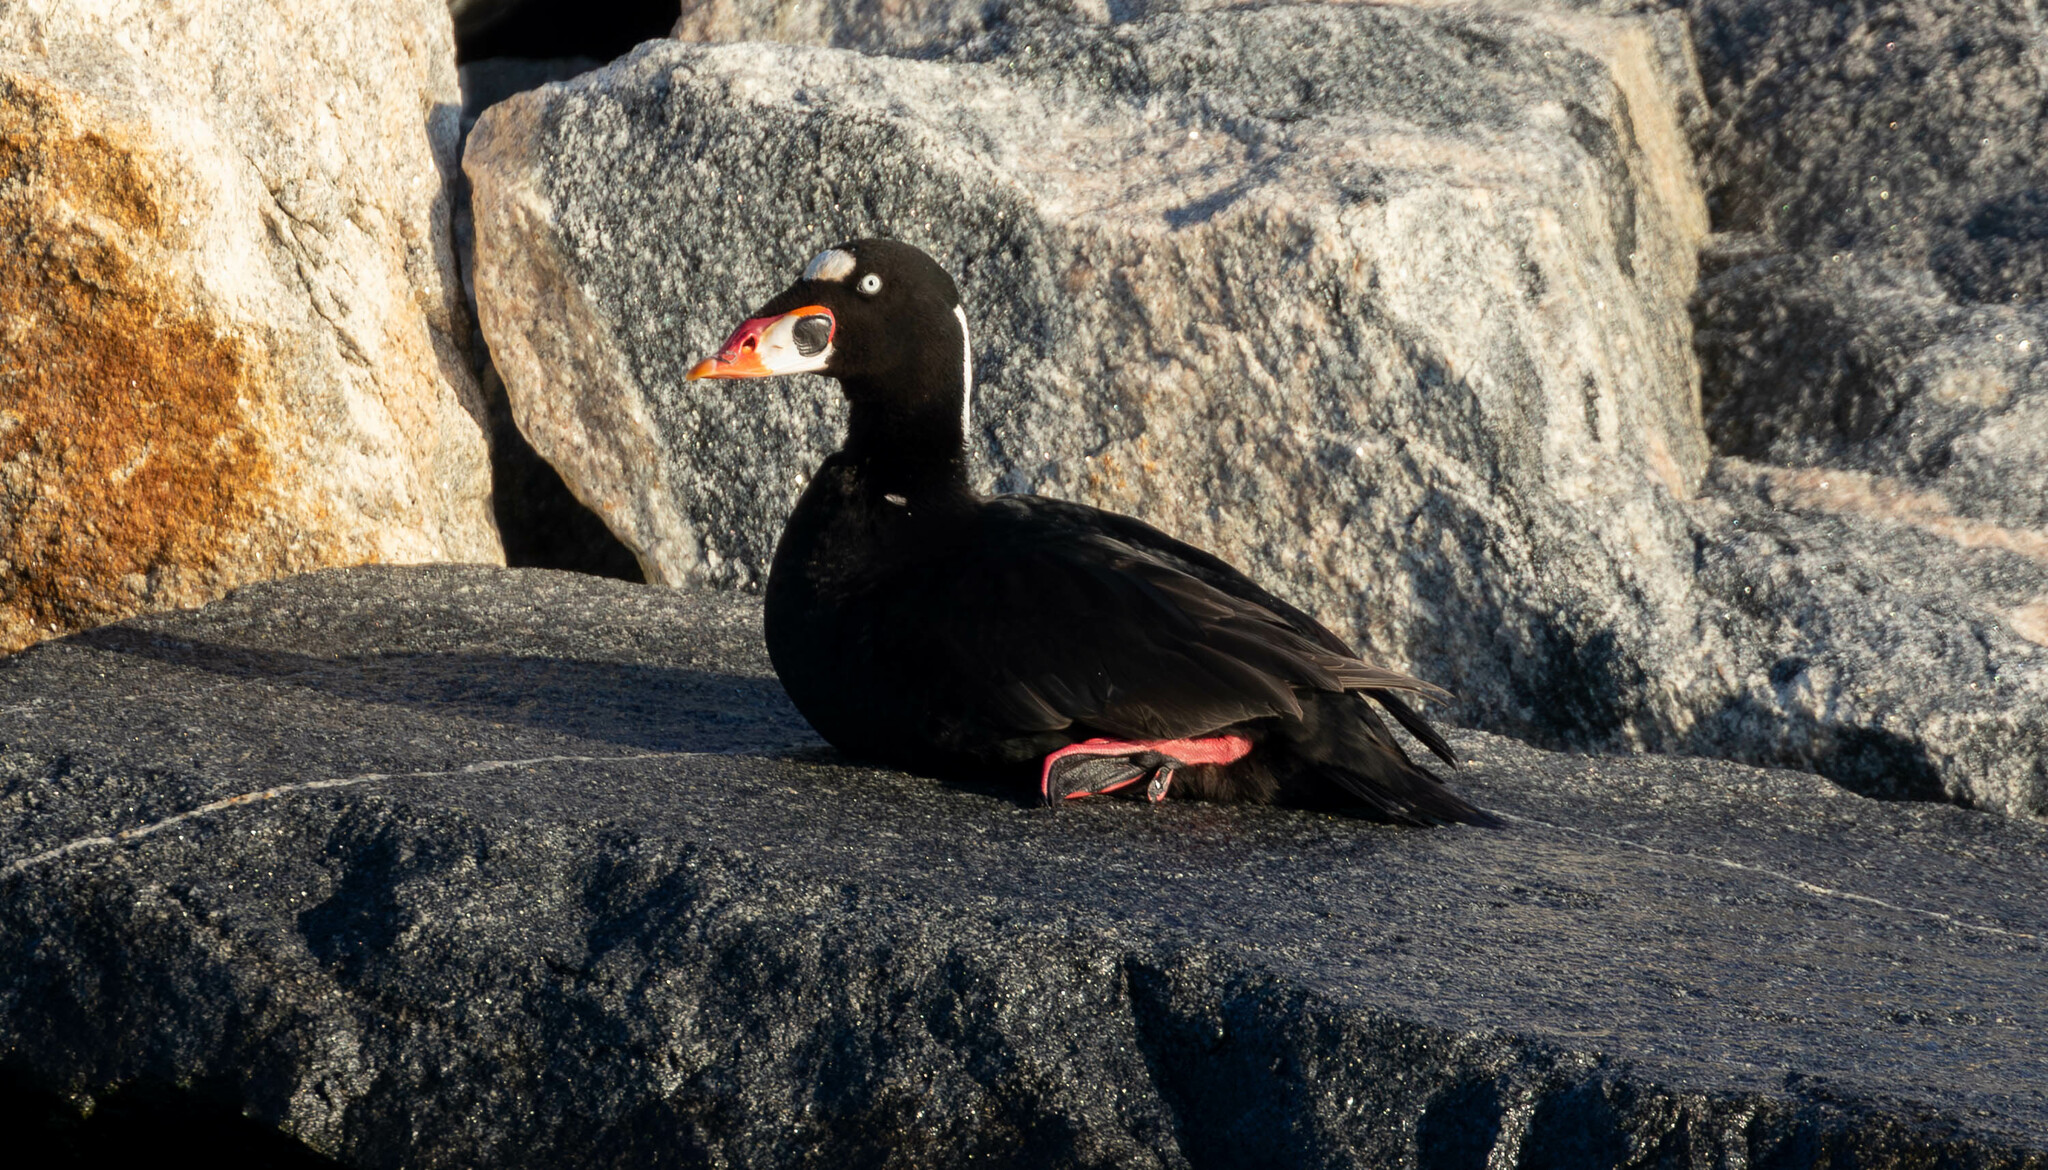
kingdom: Animalia
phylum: Chordata
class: Aves
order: Anseriformes
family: Anatidae
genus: Melanitta
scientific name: Melanitta perspicillata
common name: Surf scoter
